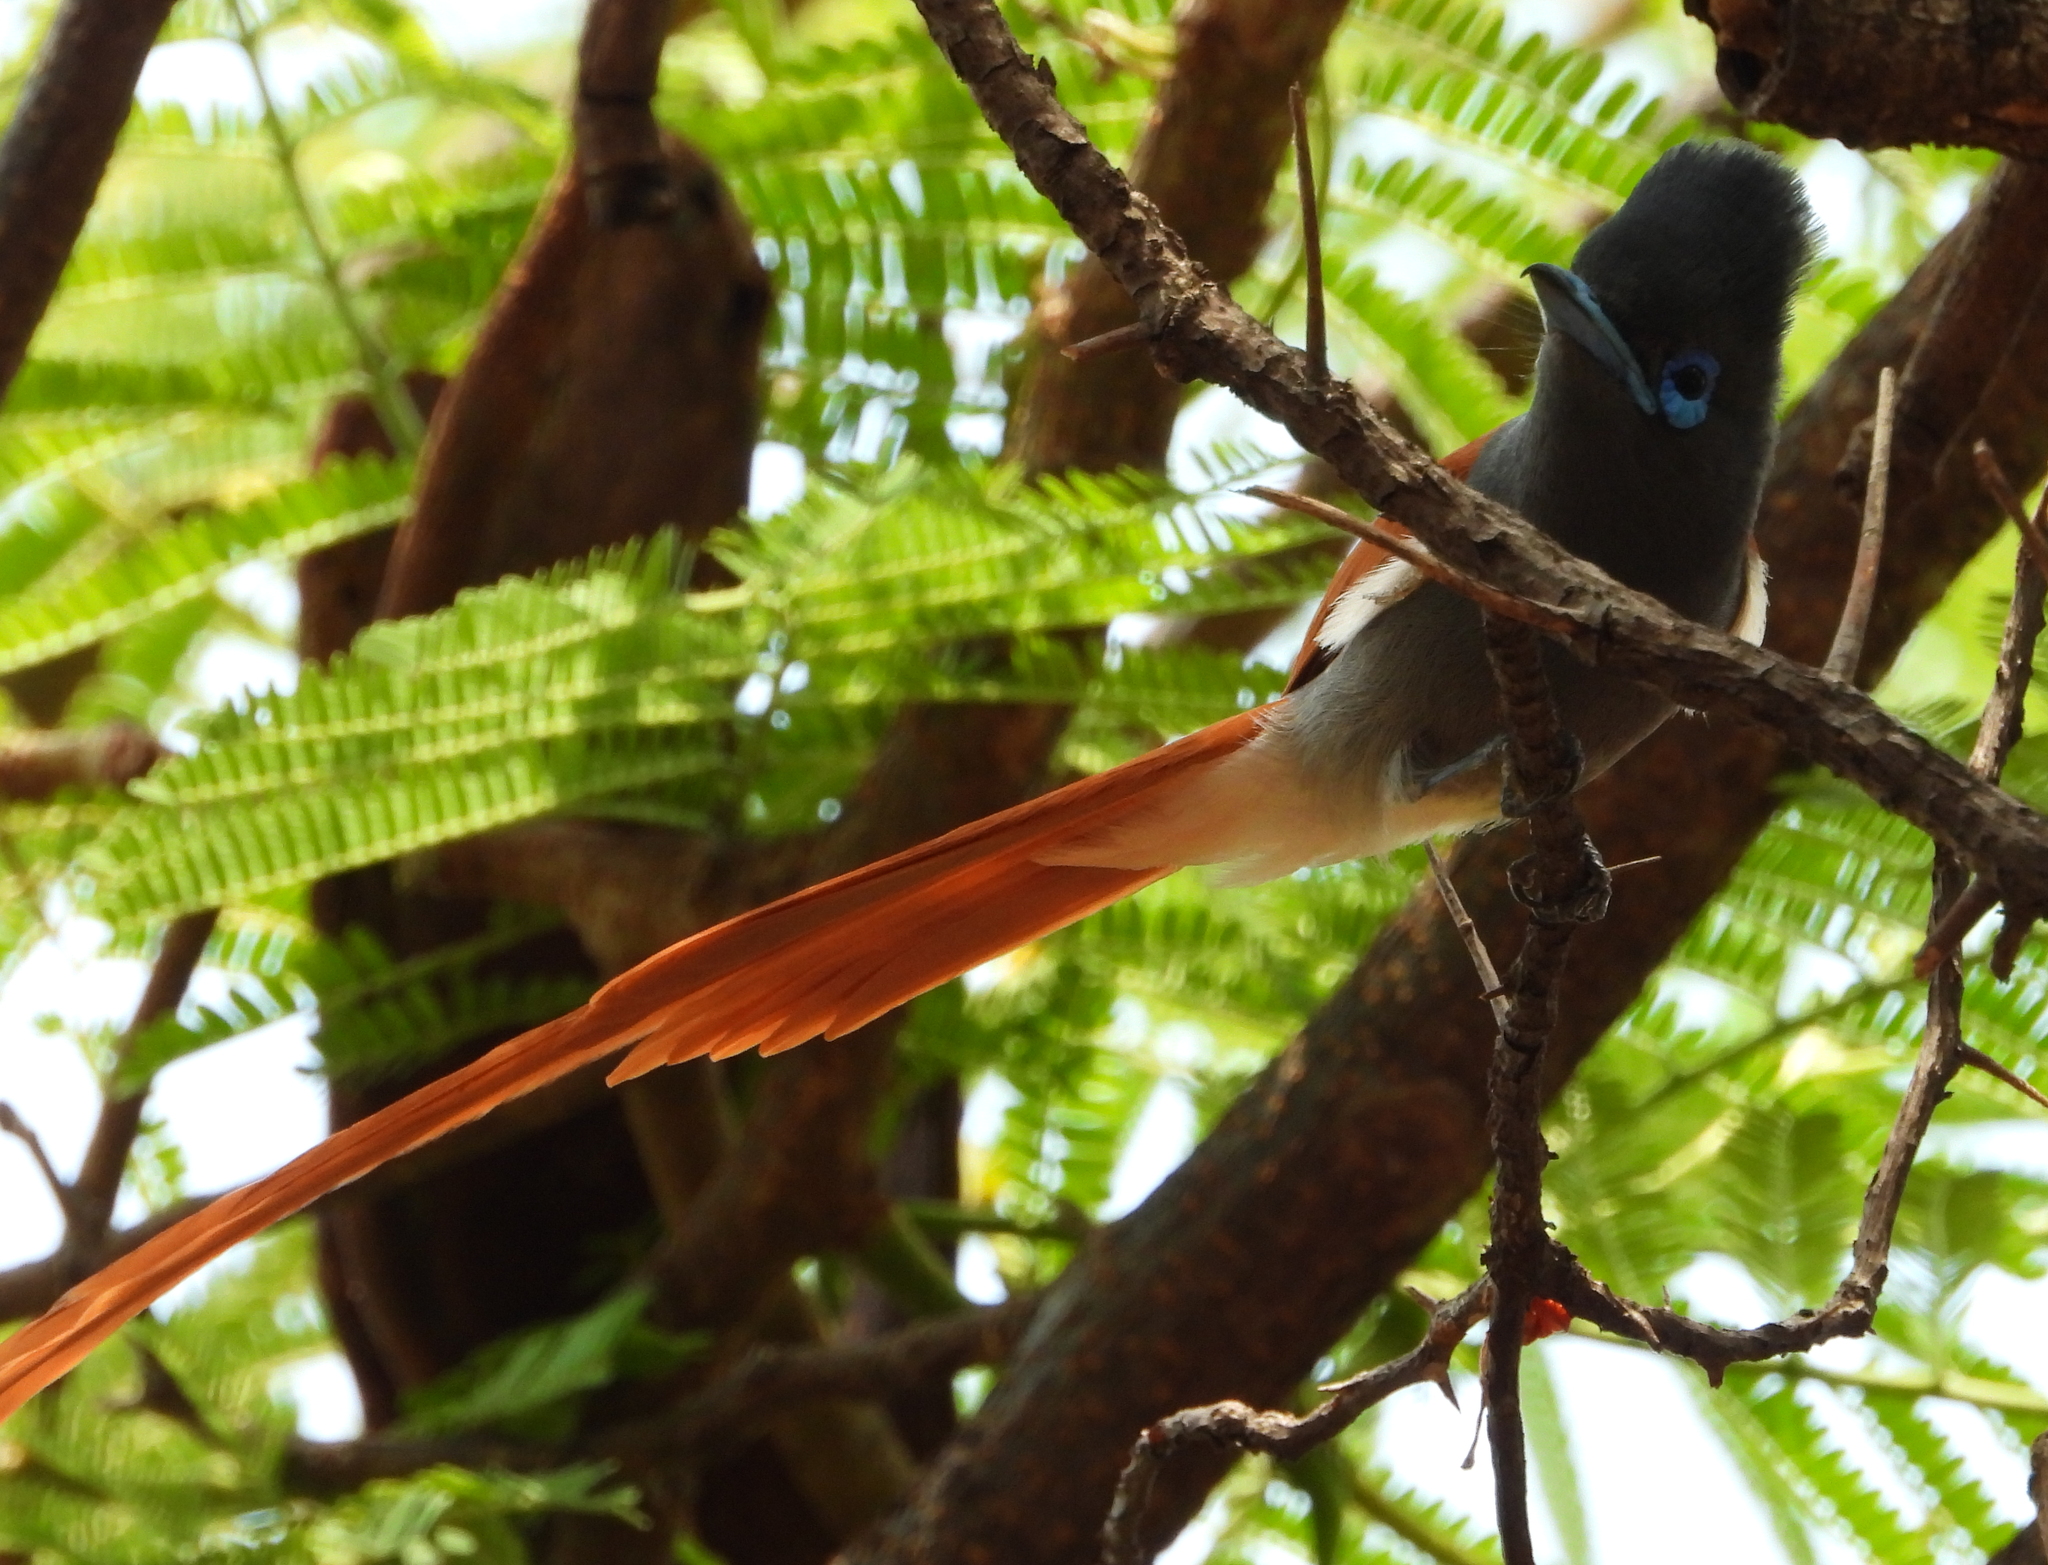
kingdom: Animalia
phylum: Chordata
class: Aves
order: Passeriformes
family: Monarchidae
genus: Terpsiphone
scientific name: Terpsiphone viridis
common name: African paradise flycatcher
